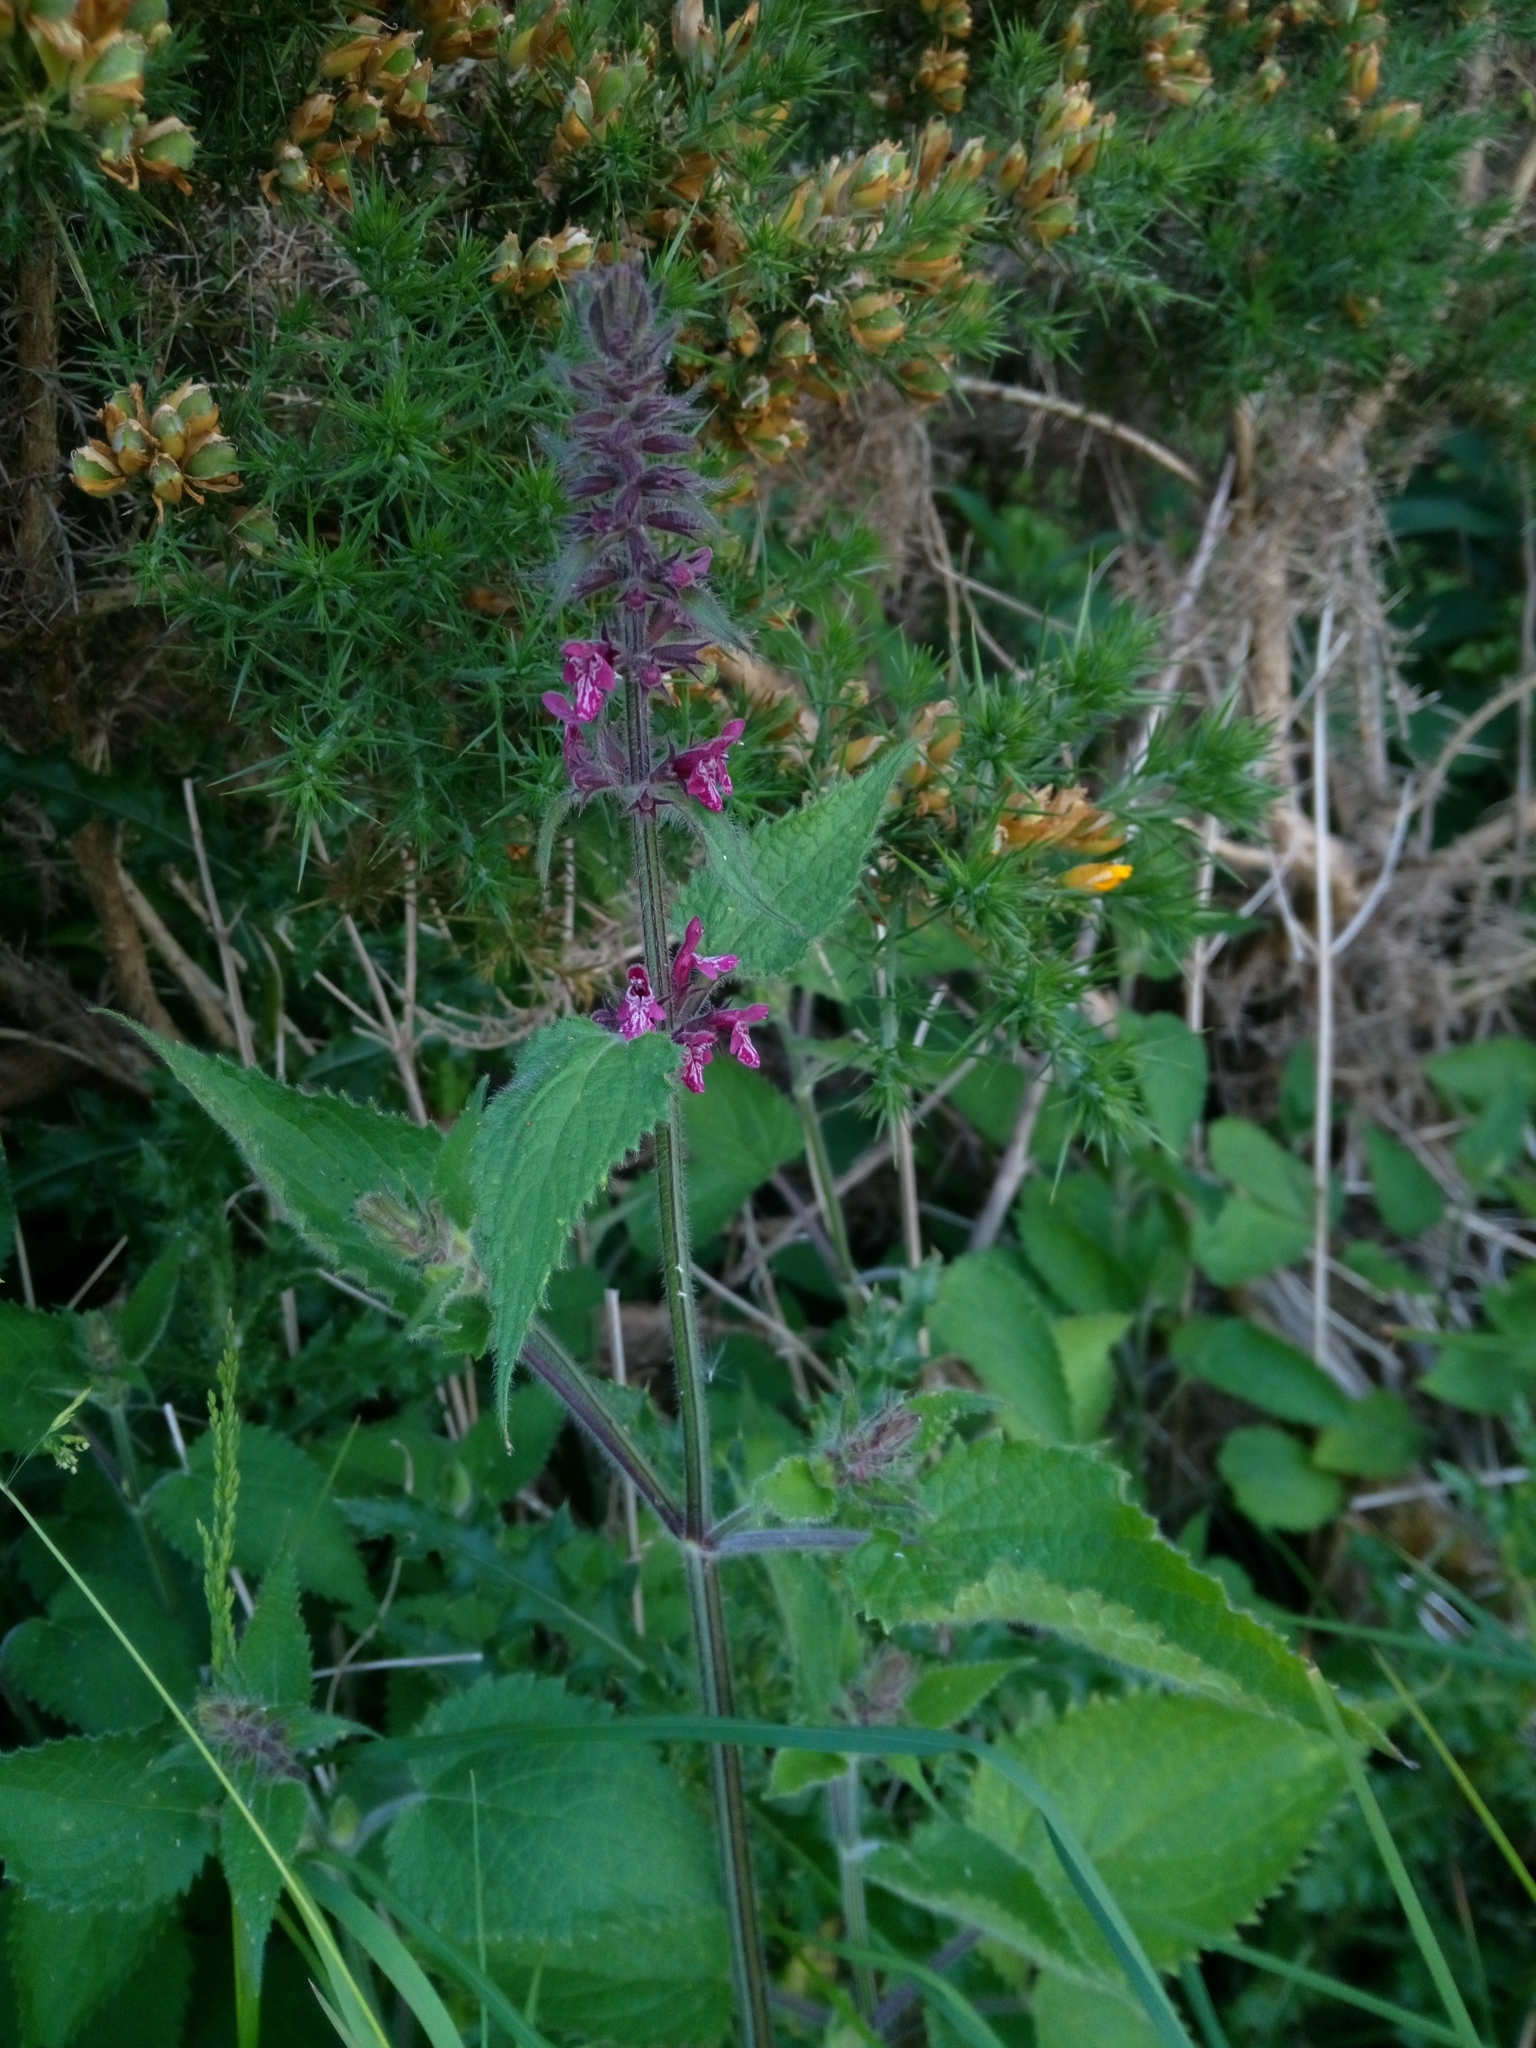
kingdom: Plantae
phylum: Tracheophyta
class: Magnoliopsida
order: Lamiales
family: Lamiaceae
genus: Stachys
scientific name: Stachys sylvatica
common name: Hedge woundwort
